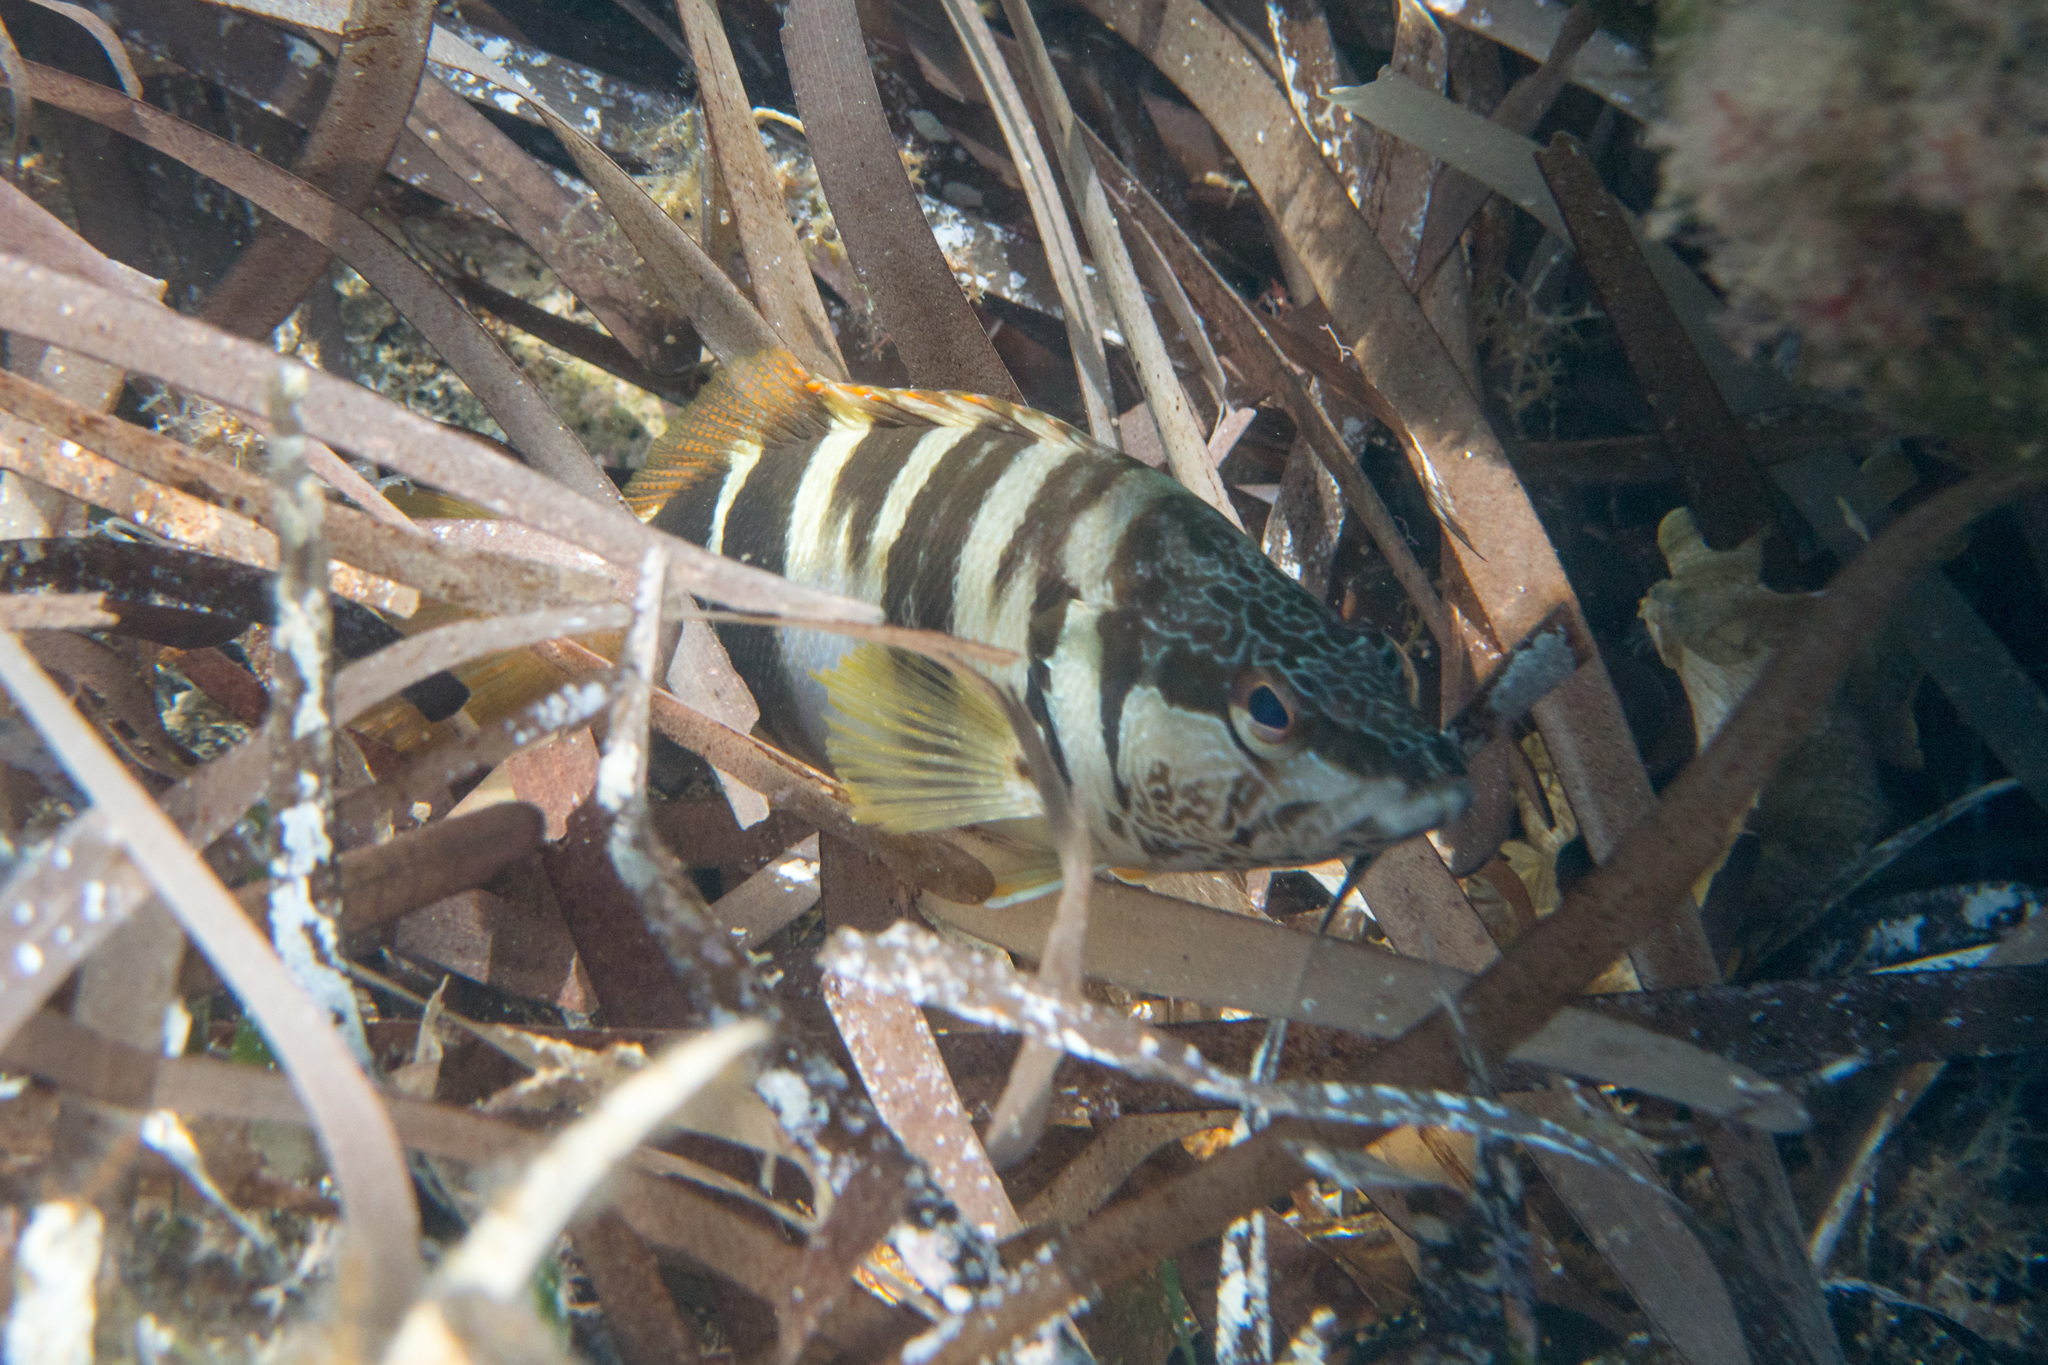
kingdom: Animalia
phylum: Chordata
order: Perciformes
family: Serranidae
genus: Serranus
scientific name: Serranus scriba
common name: Painted comber
